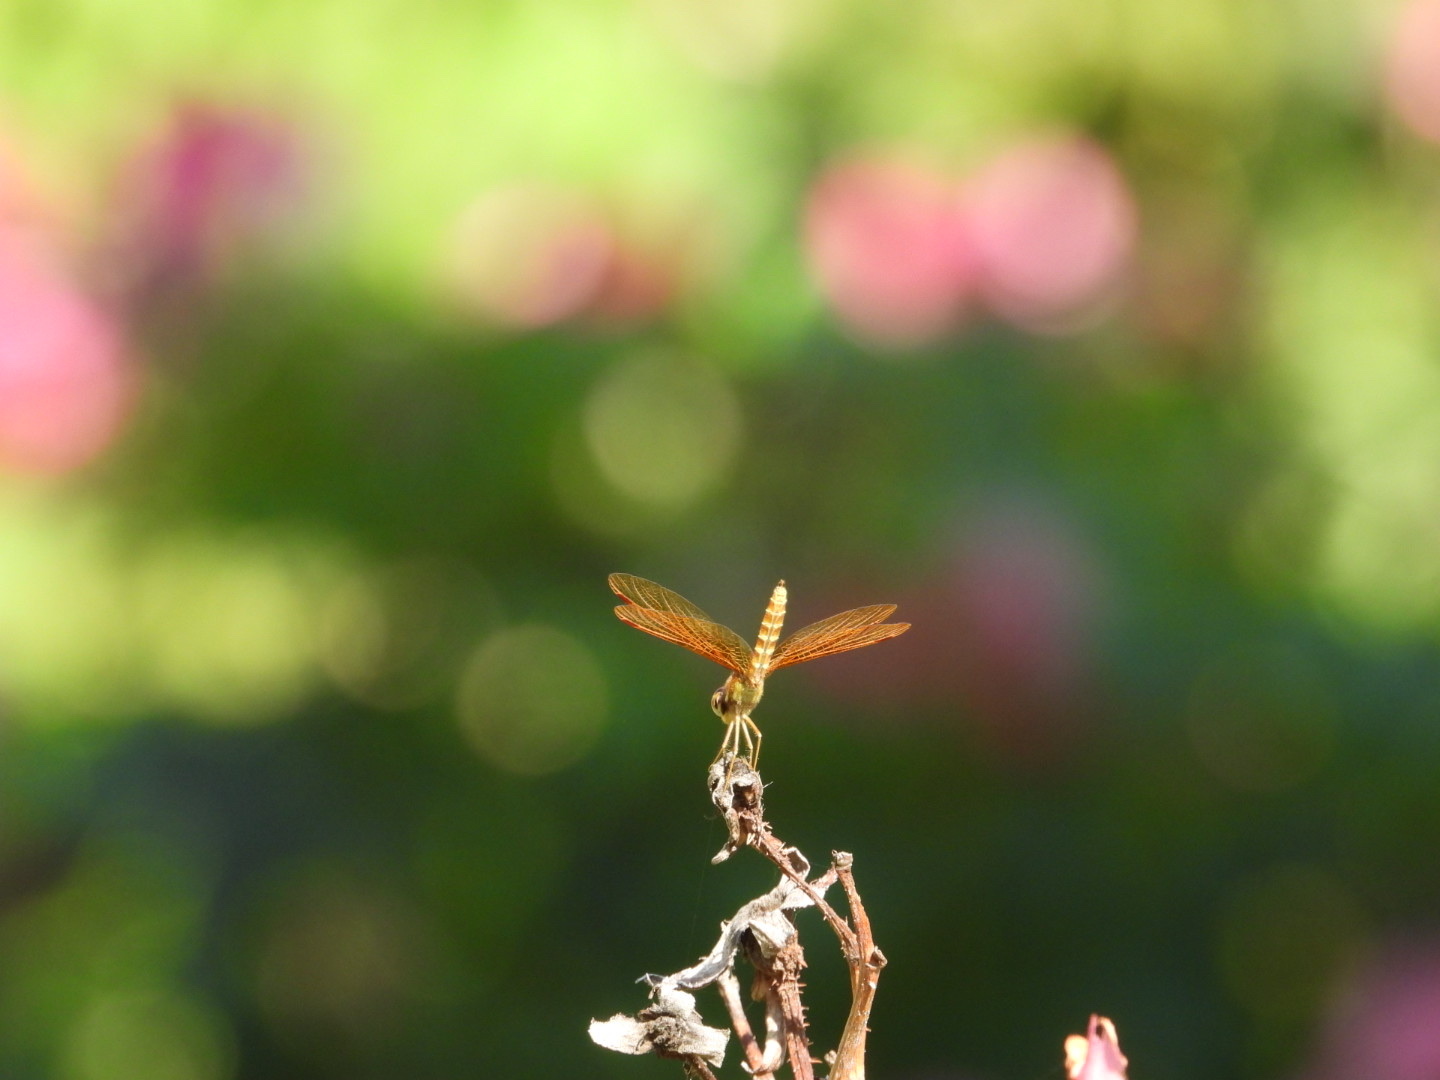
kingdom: Animalia
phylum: Arthropoda
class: Insecta
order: Odonata
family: Libellulidae
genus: Perithemis
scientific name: Perithemis tenera
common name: Eastern amberwing
